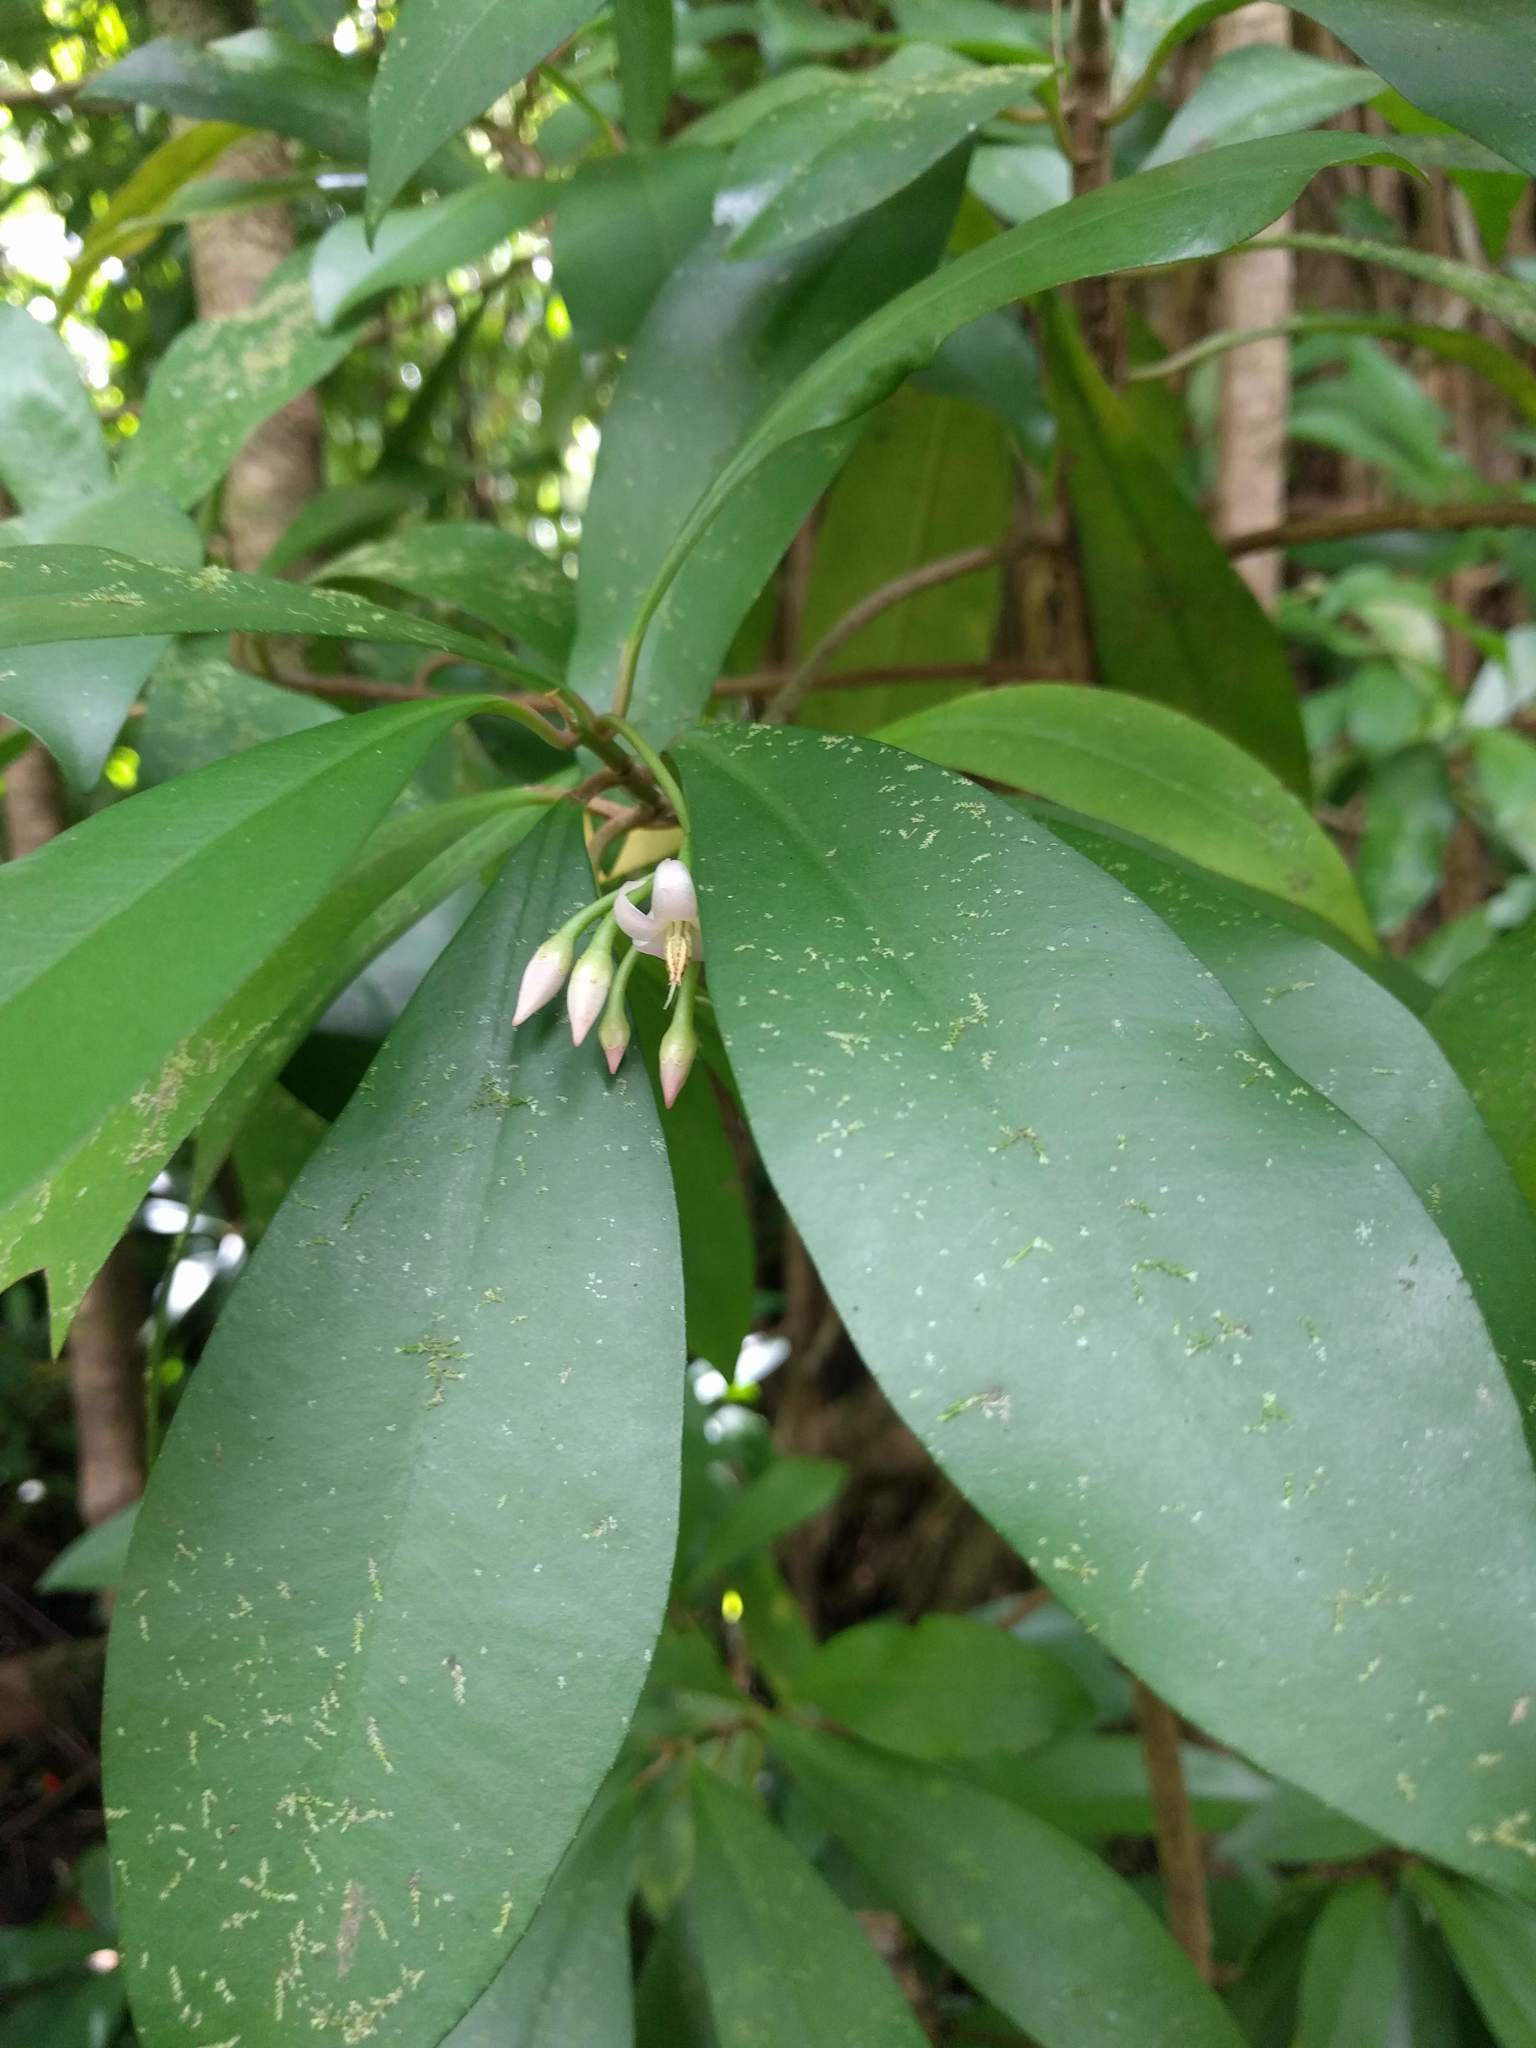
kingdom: Plantae
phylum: Tracheophyta
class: Magnoliopsida
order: Ericales
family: Primulaceae
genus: Ardisia
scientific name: Ardisia elliptica
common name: Shoebutton
